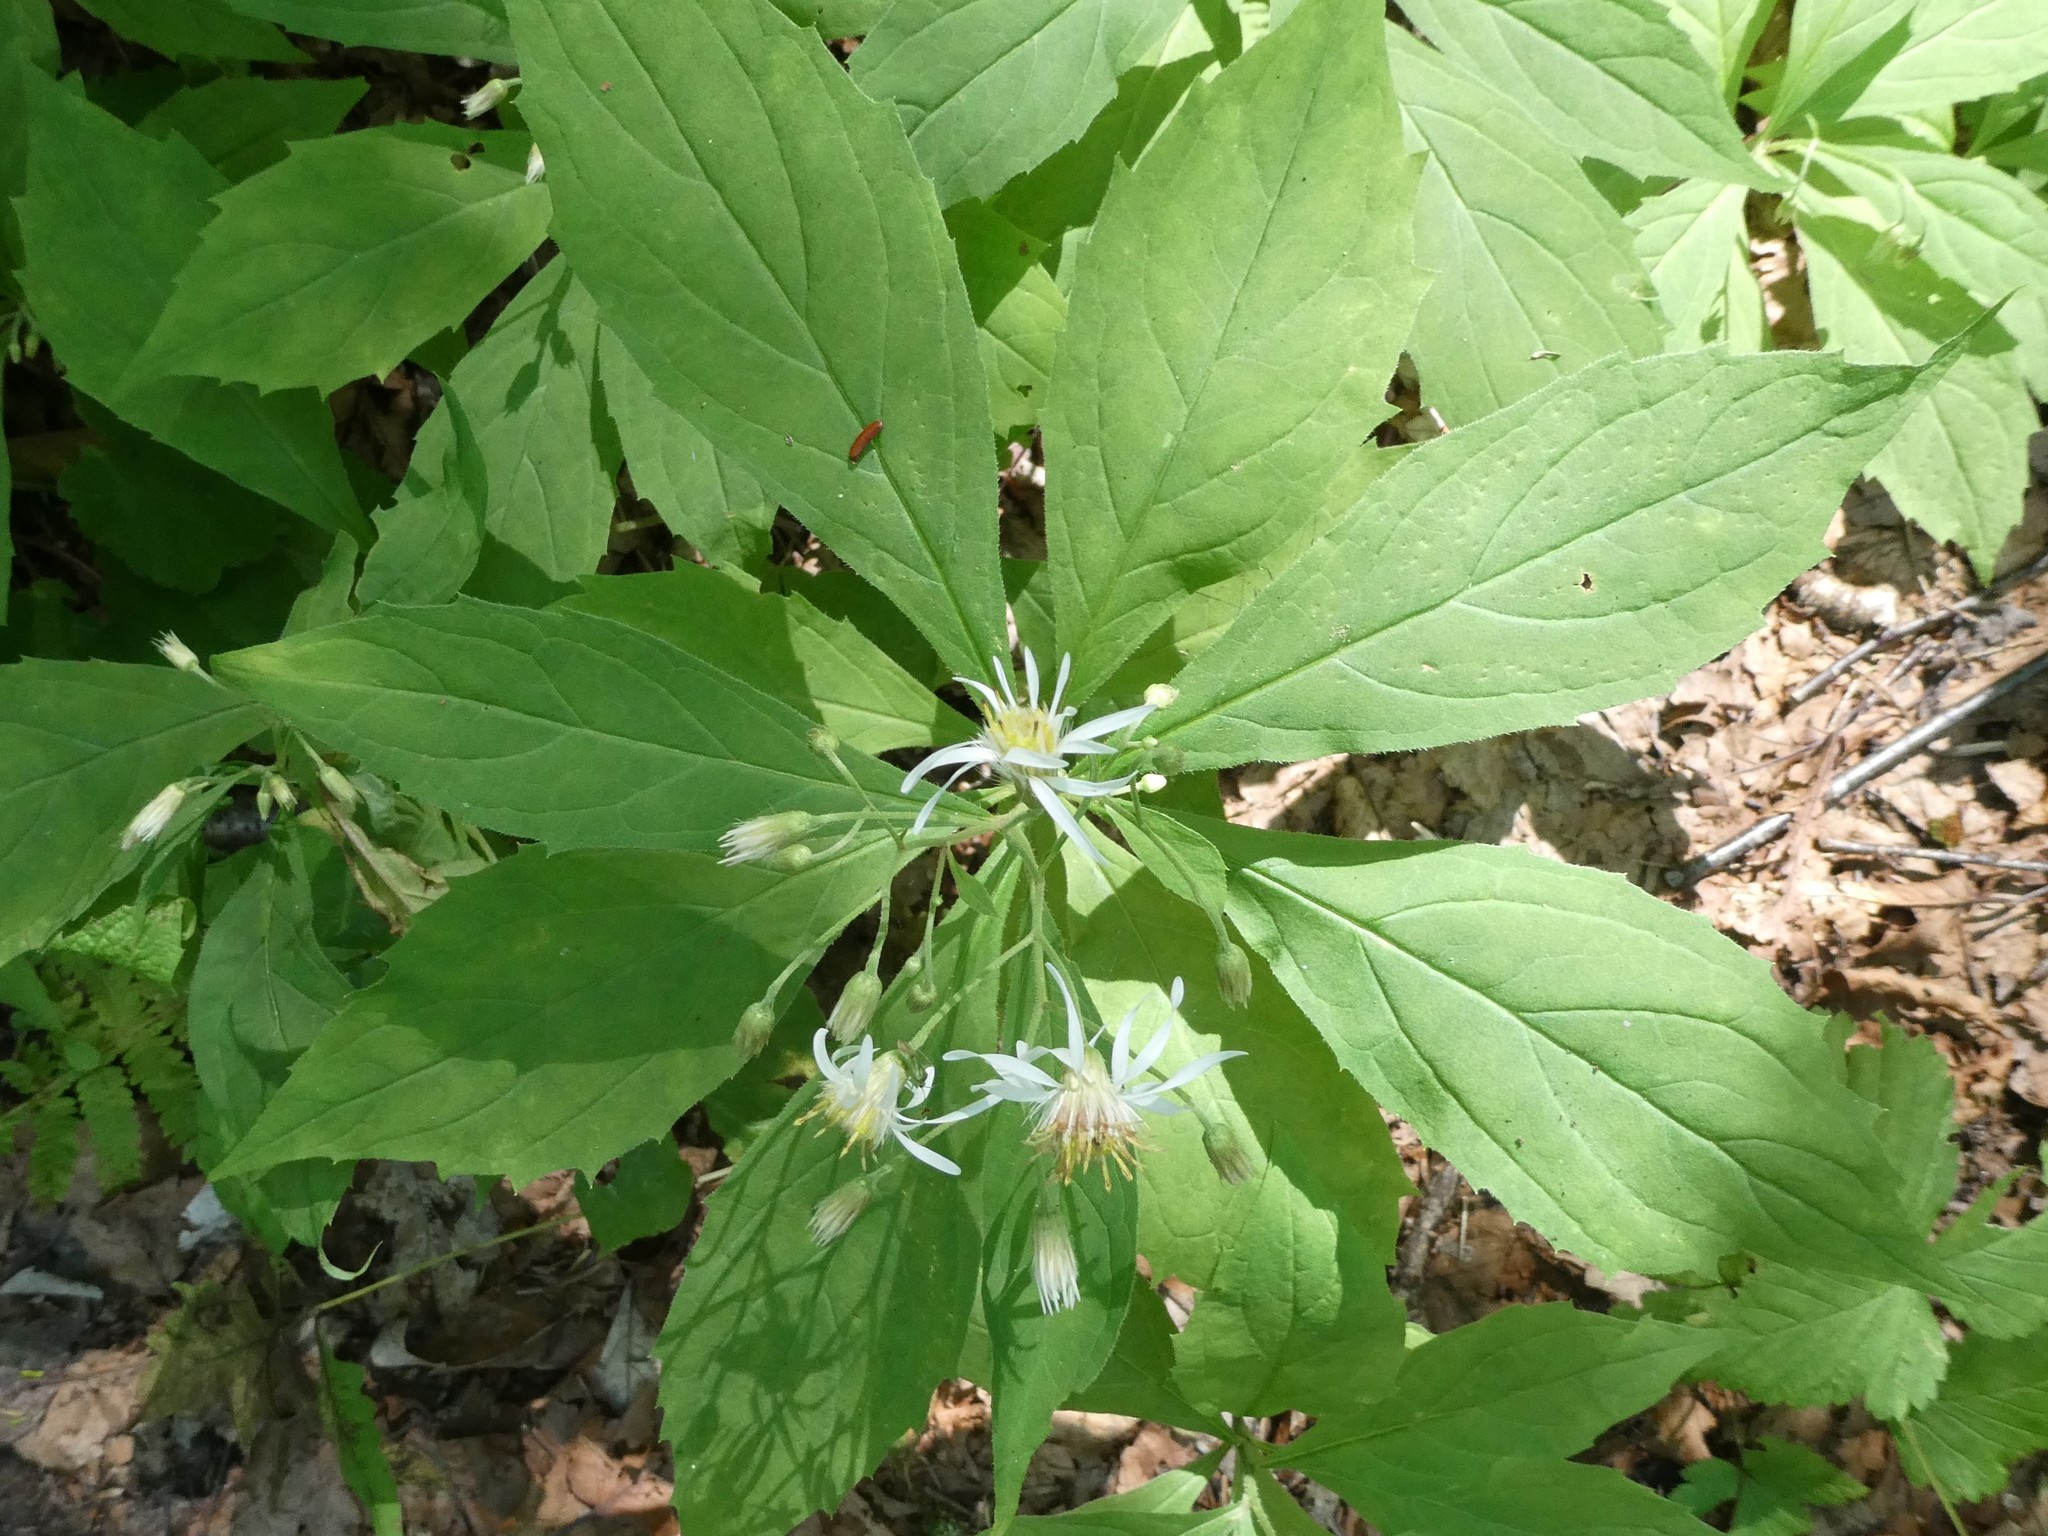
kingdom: Plantae
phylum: Tracheophyta
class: Magnoliopsida
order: Asterales
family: Asteraceae
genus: Oclemena
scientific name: Oclemena acuminata
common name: Mountain aster
